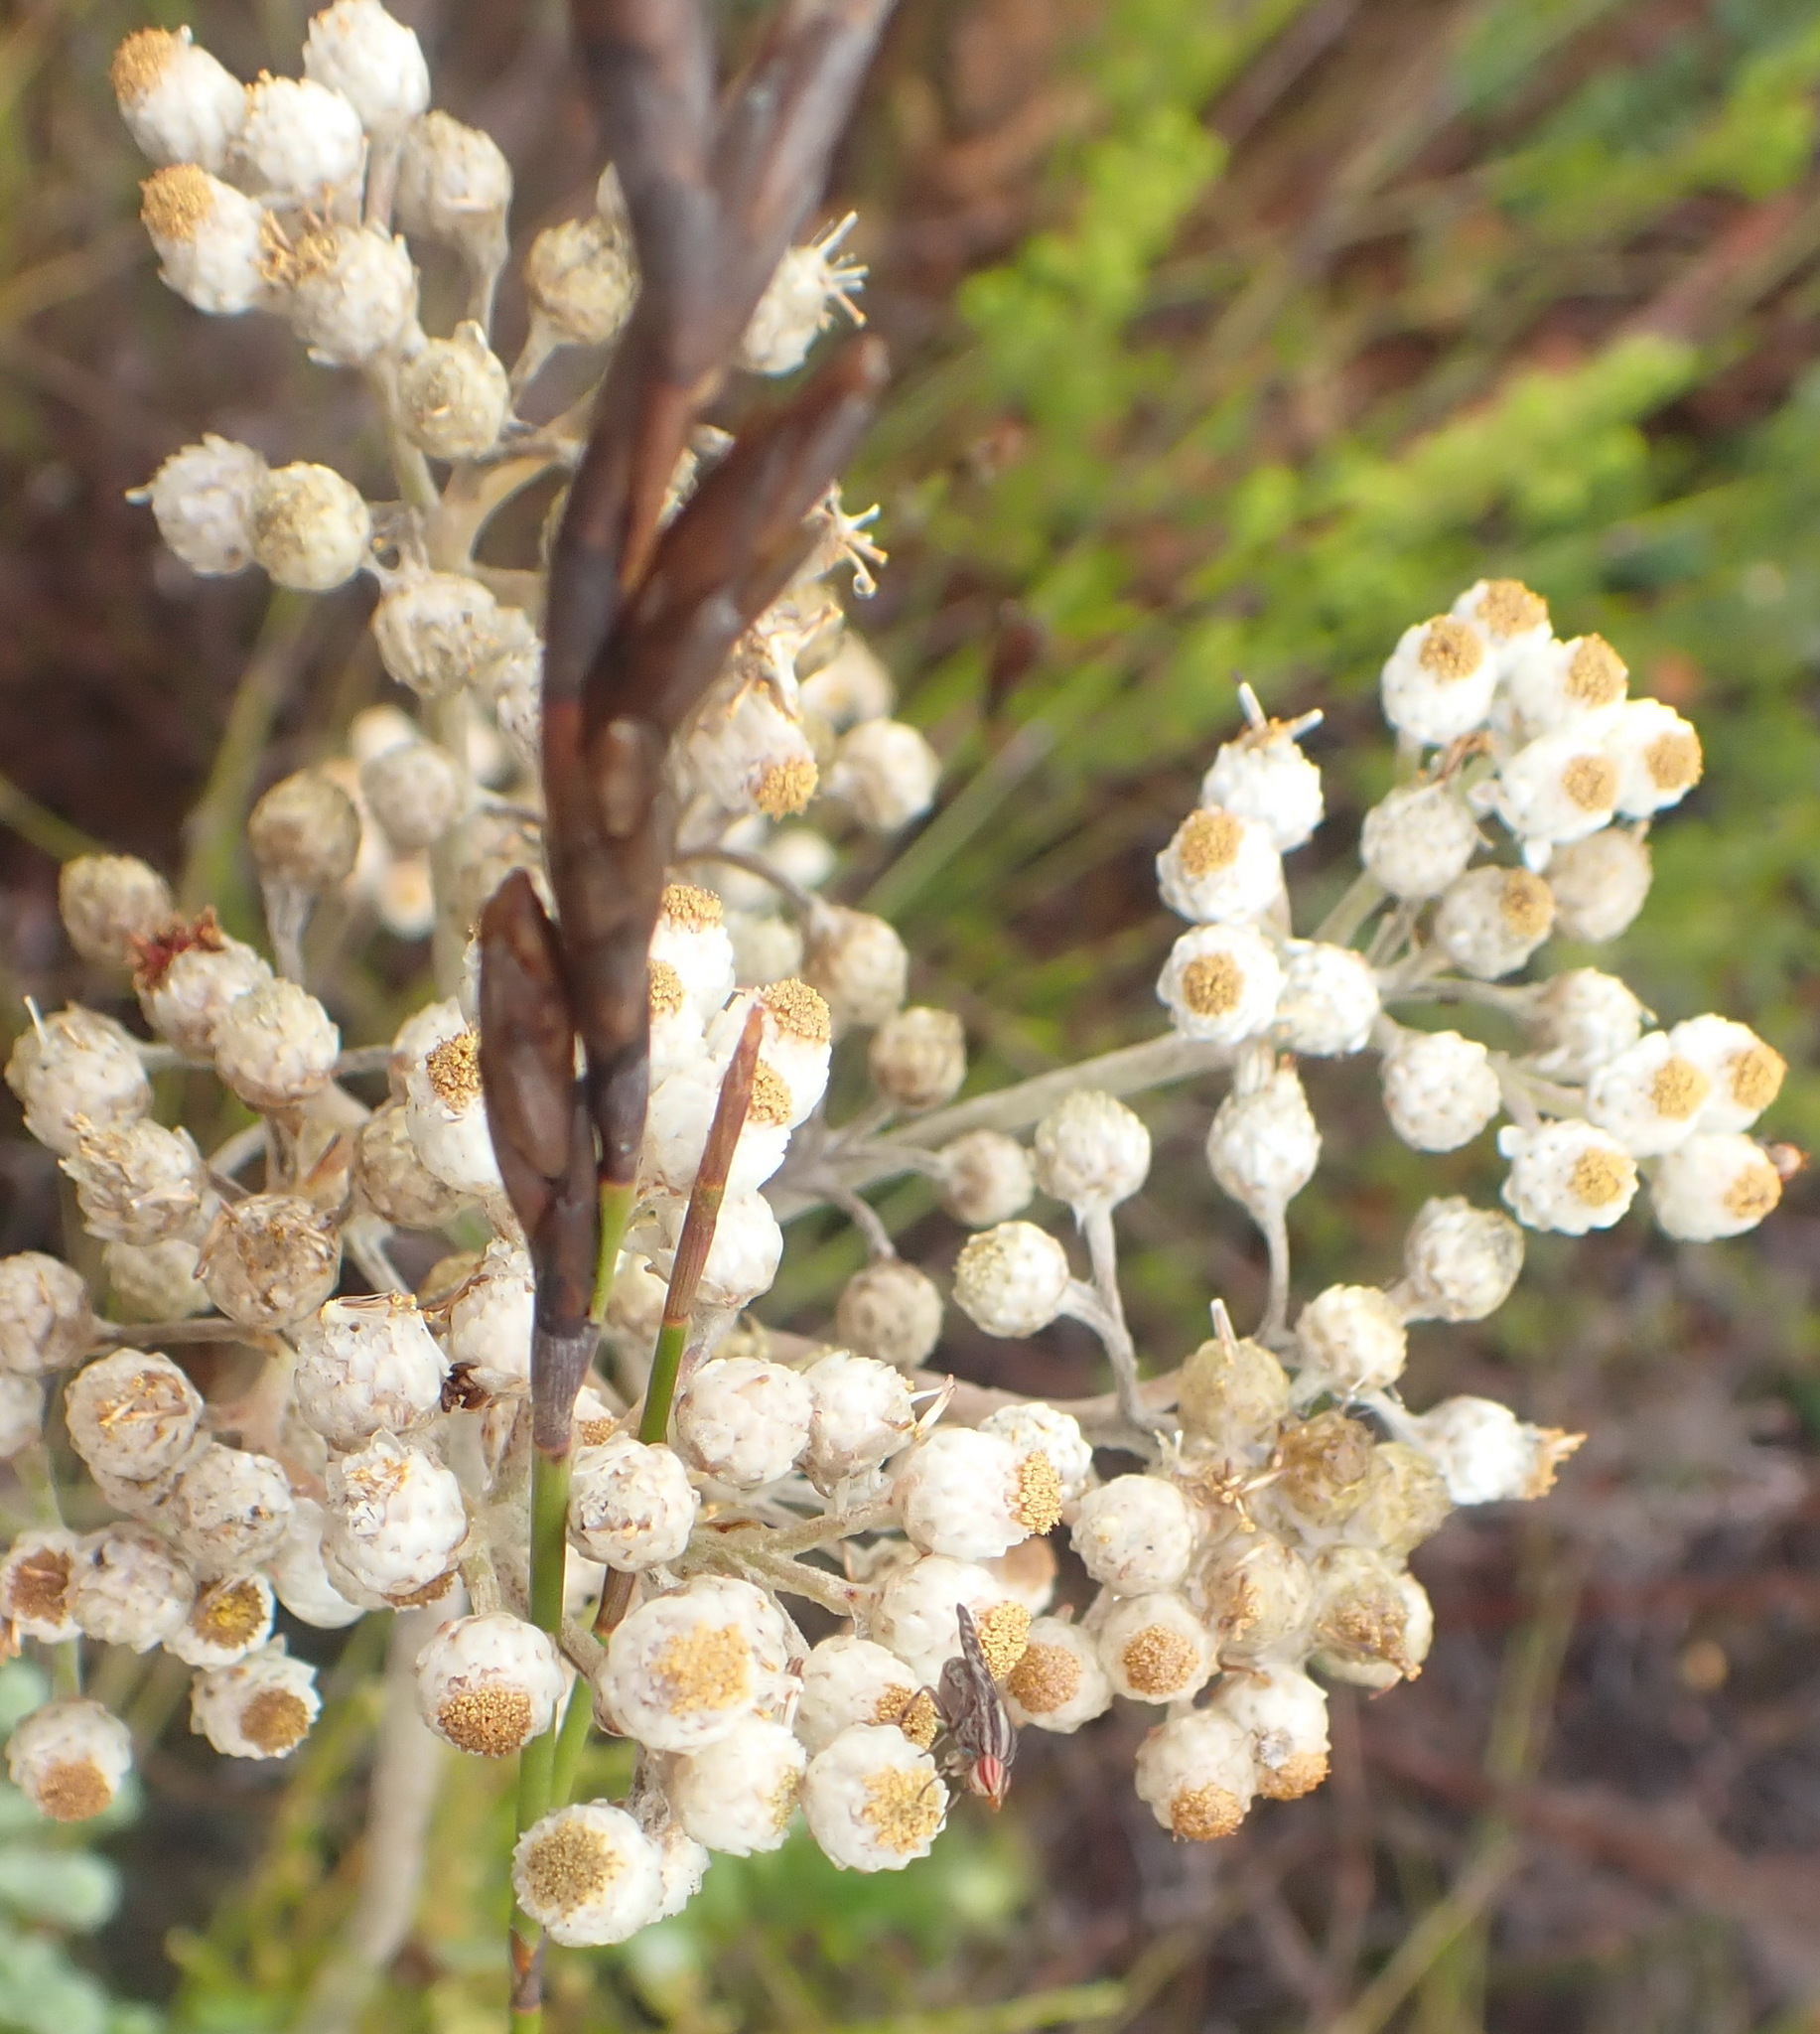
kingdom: Plantae
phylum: Tracheophyta
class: Magnoliopsida
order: Asterales
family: Asteraceae
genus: Helichrysum
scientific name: Helichrysum felinum
